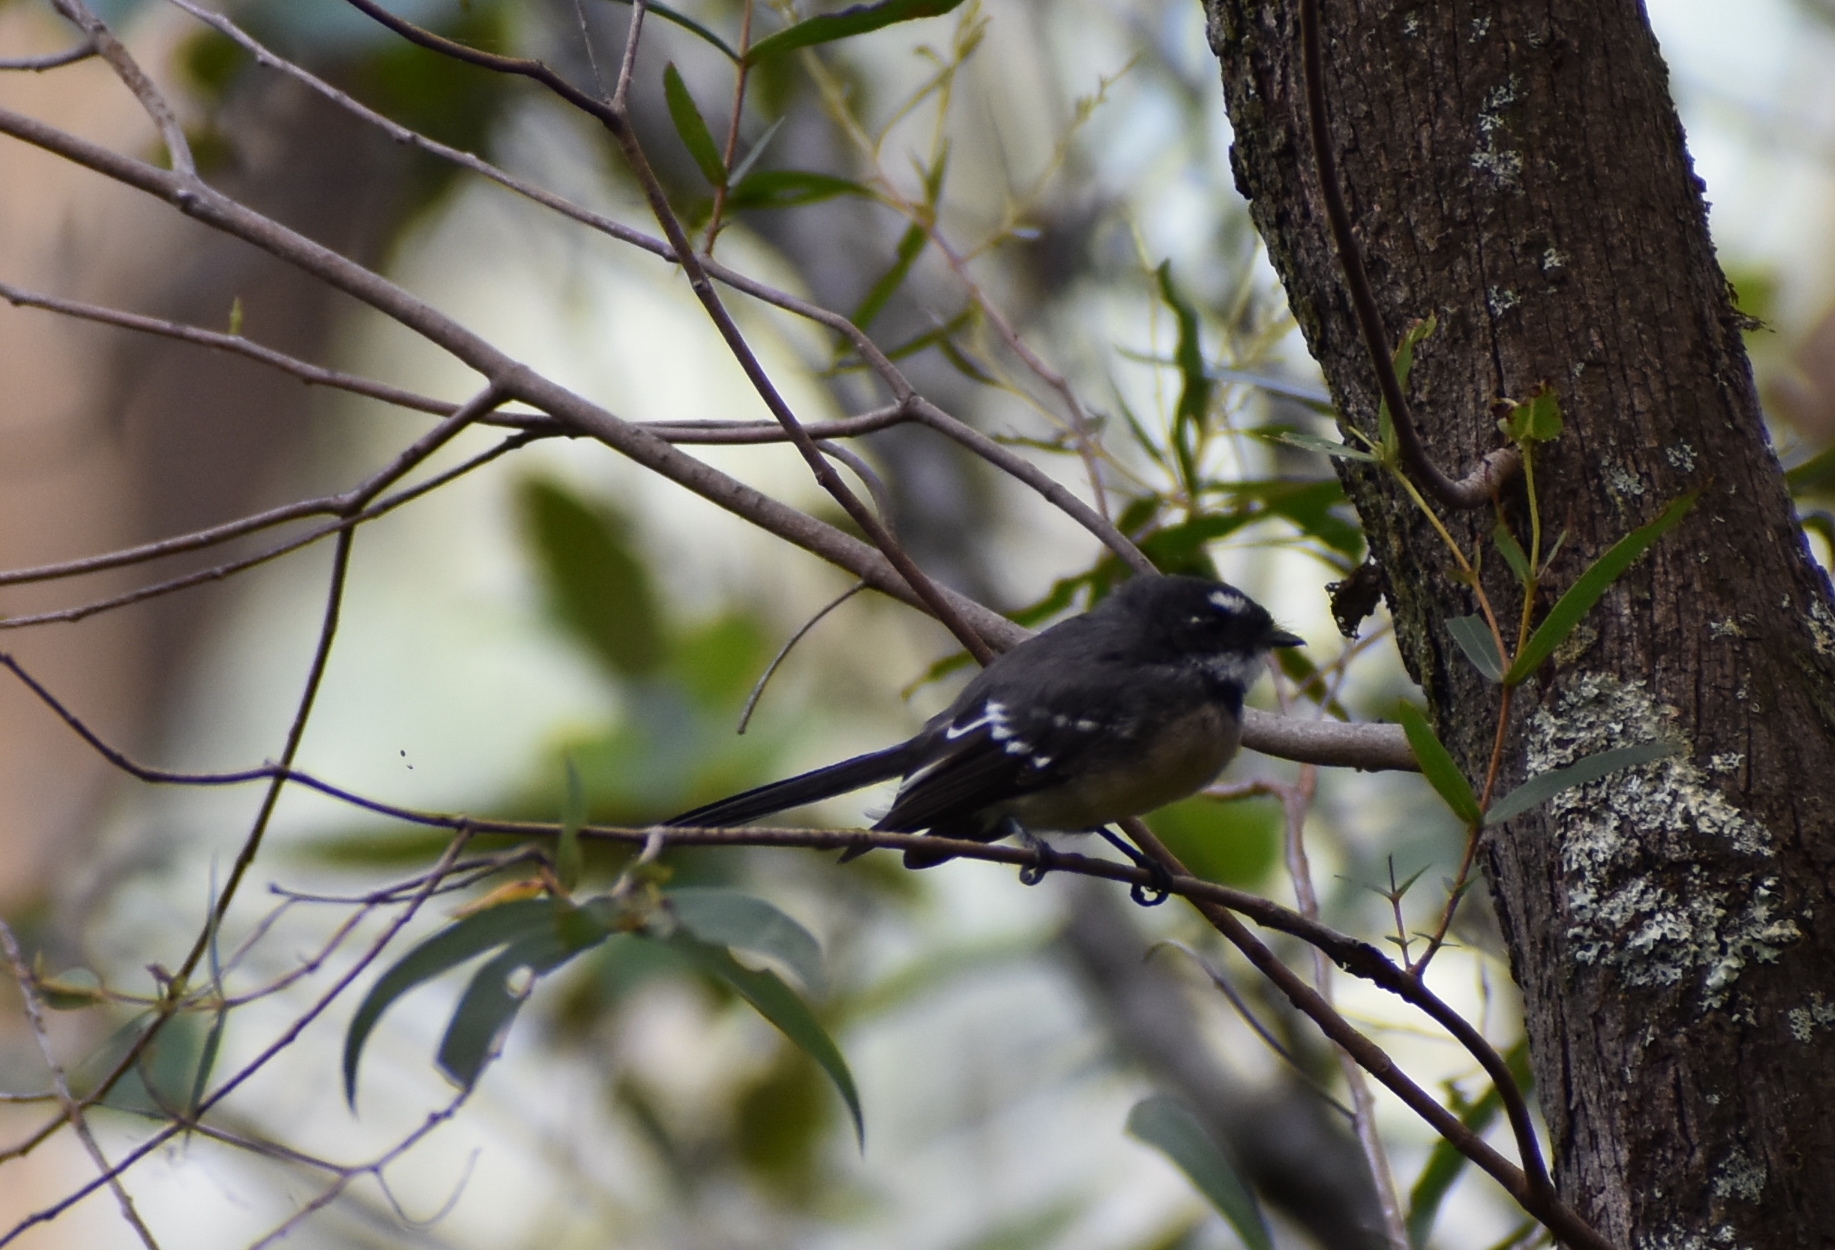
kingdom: Animalia
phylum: Chordata
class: Aves
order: Passeriformes
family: Rhipiduridae
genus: Rhipidura
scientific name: Rhipidura albiscapa
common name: Grey fantail
